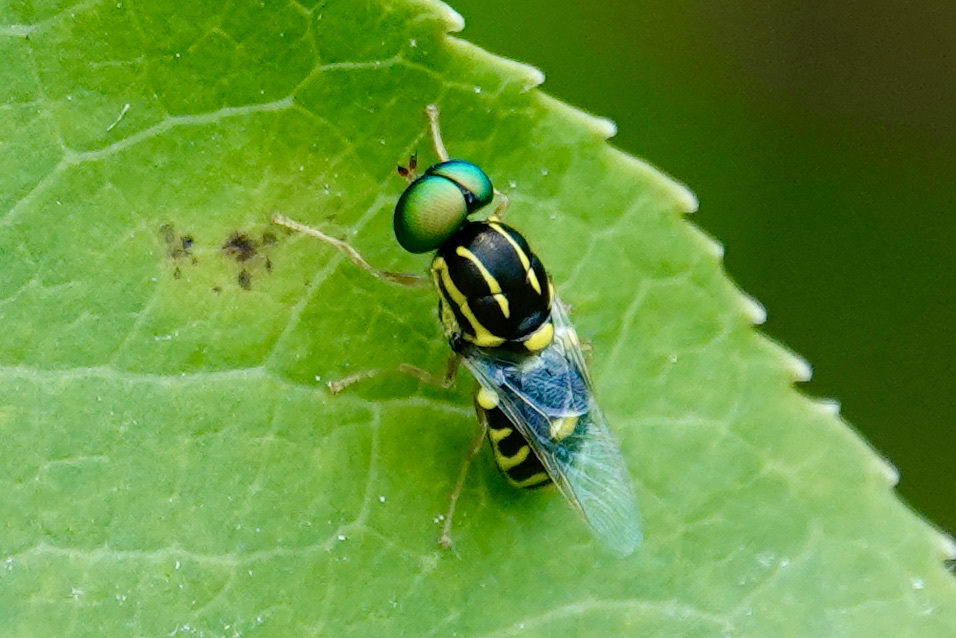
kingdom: Animalia
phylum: Arthropoda
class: Insecta
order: Diptera
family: Stratiomyidae
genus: Oxycera
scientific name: Oxycera variegata
